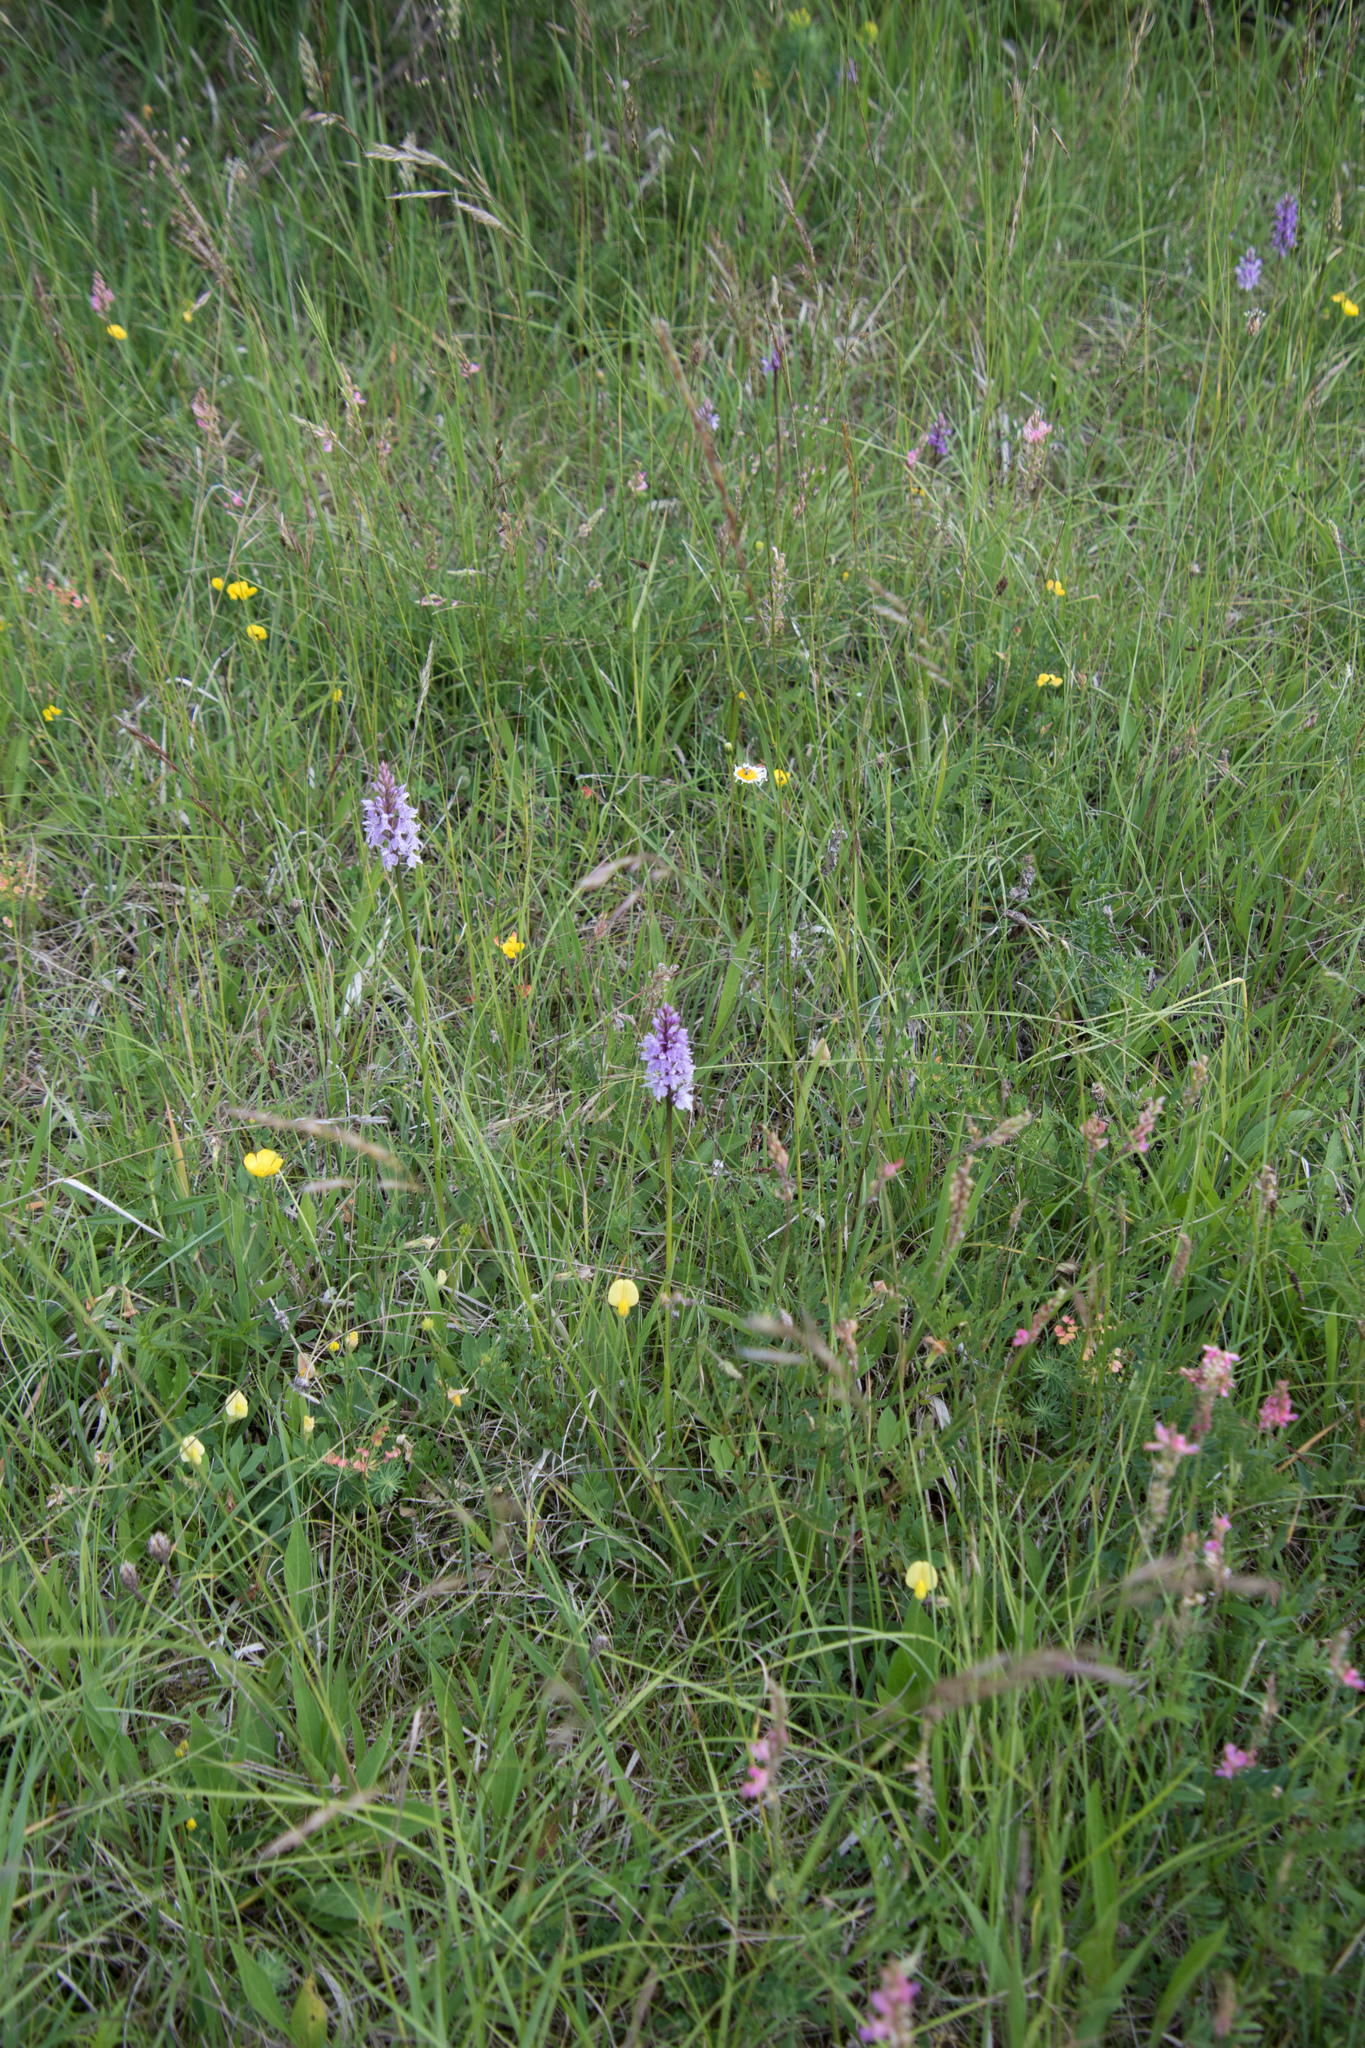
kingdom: Plantae
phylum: Tracheophyta
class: Liliopsida
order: Asparagales
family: Orchidaceae
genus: Dactylorhiza
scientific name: Dactylorhiza maculata
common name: Heath spotted-orchid
